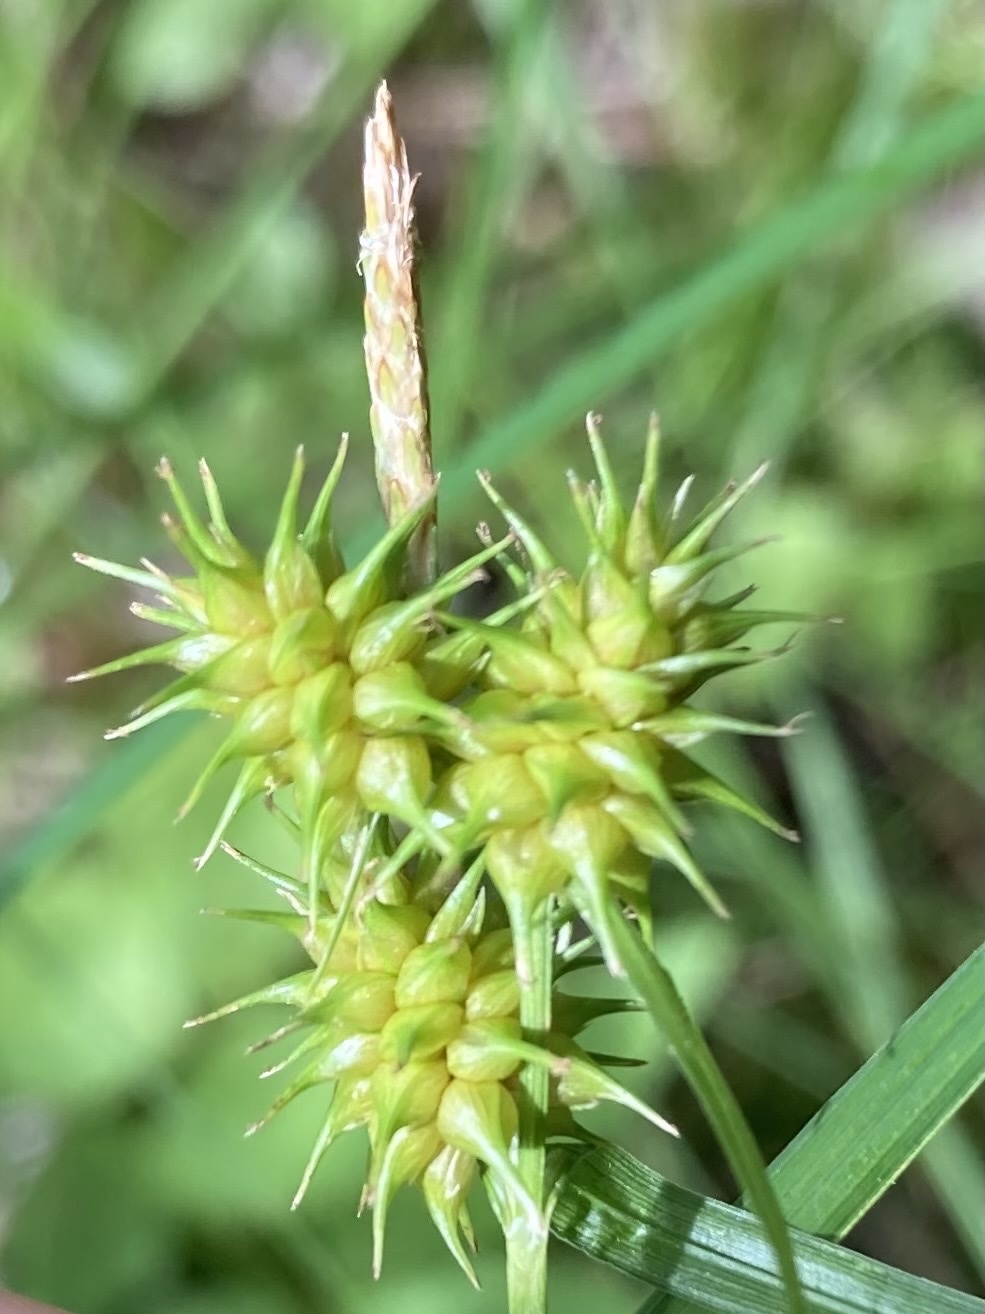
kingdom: Plantae
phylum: Tracheophyta
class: Liliopsida
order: Poales
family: Cyperaceae
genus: Carex
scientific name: Carex cryptolepis
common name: Northeastern sedge
